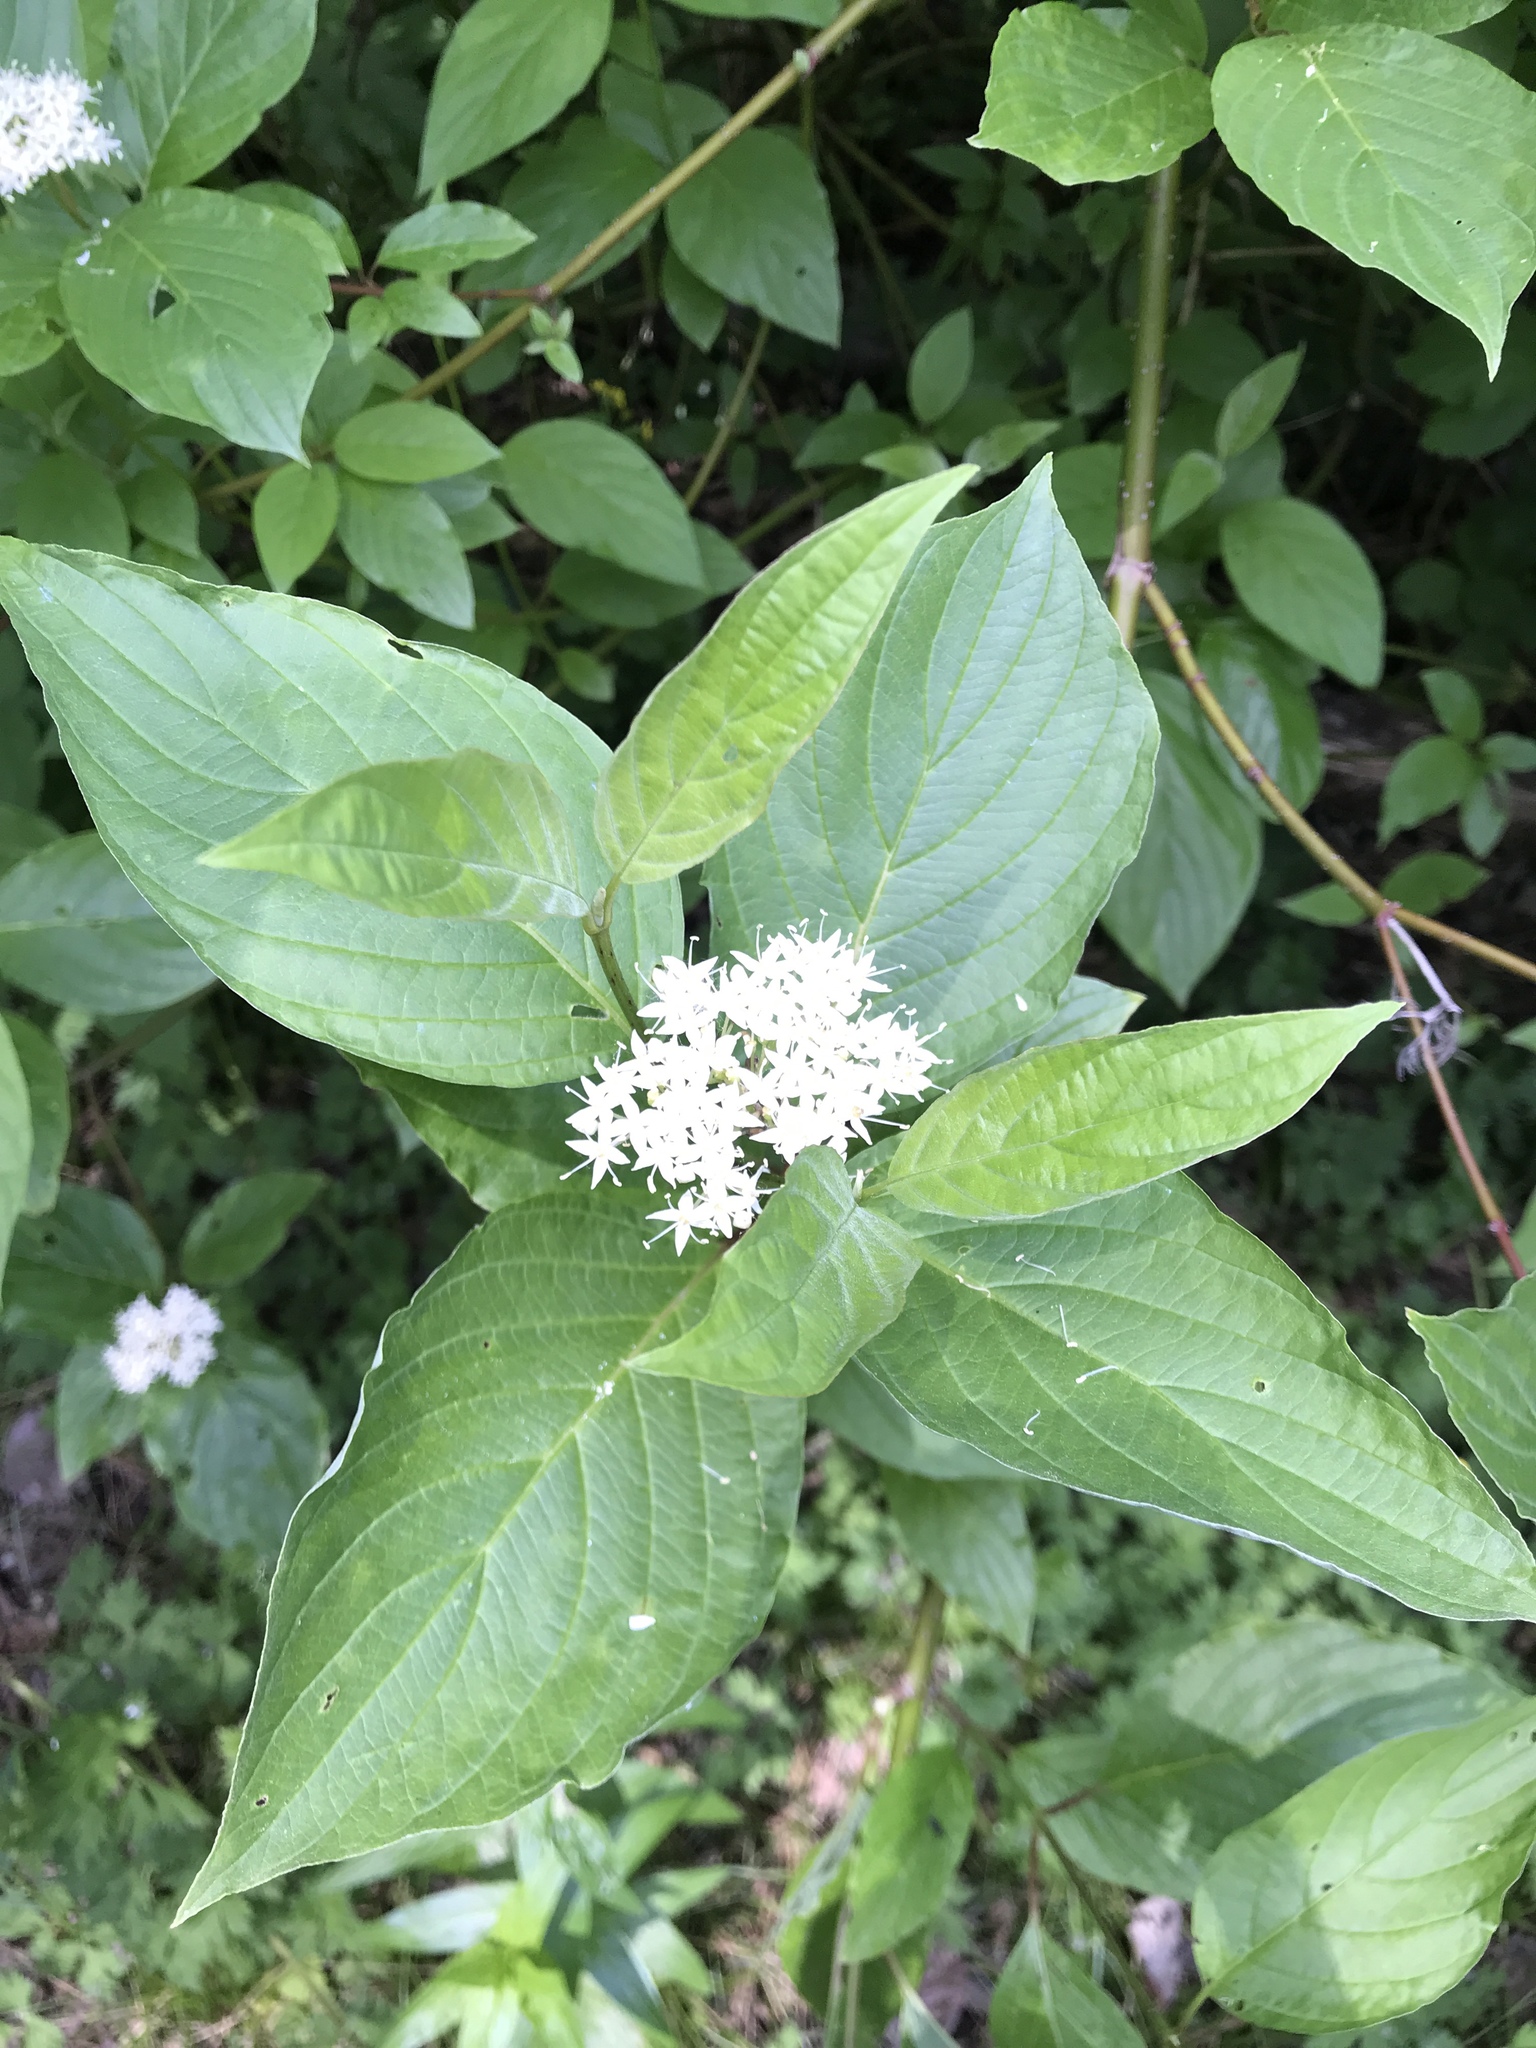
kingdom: Plantae
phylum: Tracheophyta
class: Magnoliopsida
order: Cornales
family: Cornaceae
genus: Cornus
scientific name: Cornus sericea
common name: Red-osier dogwood
